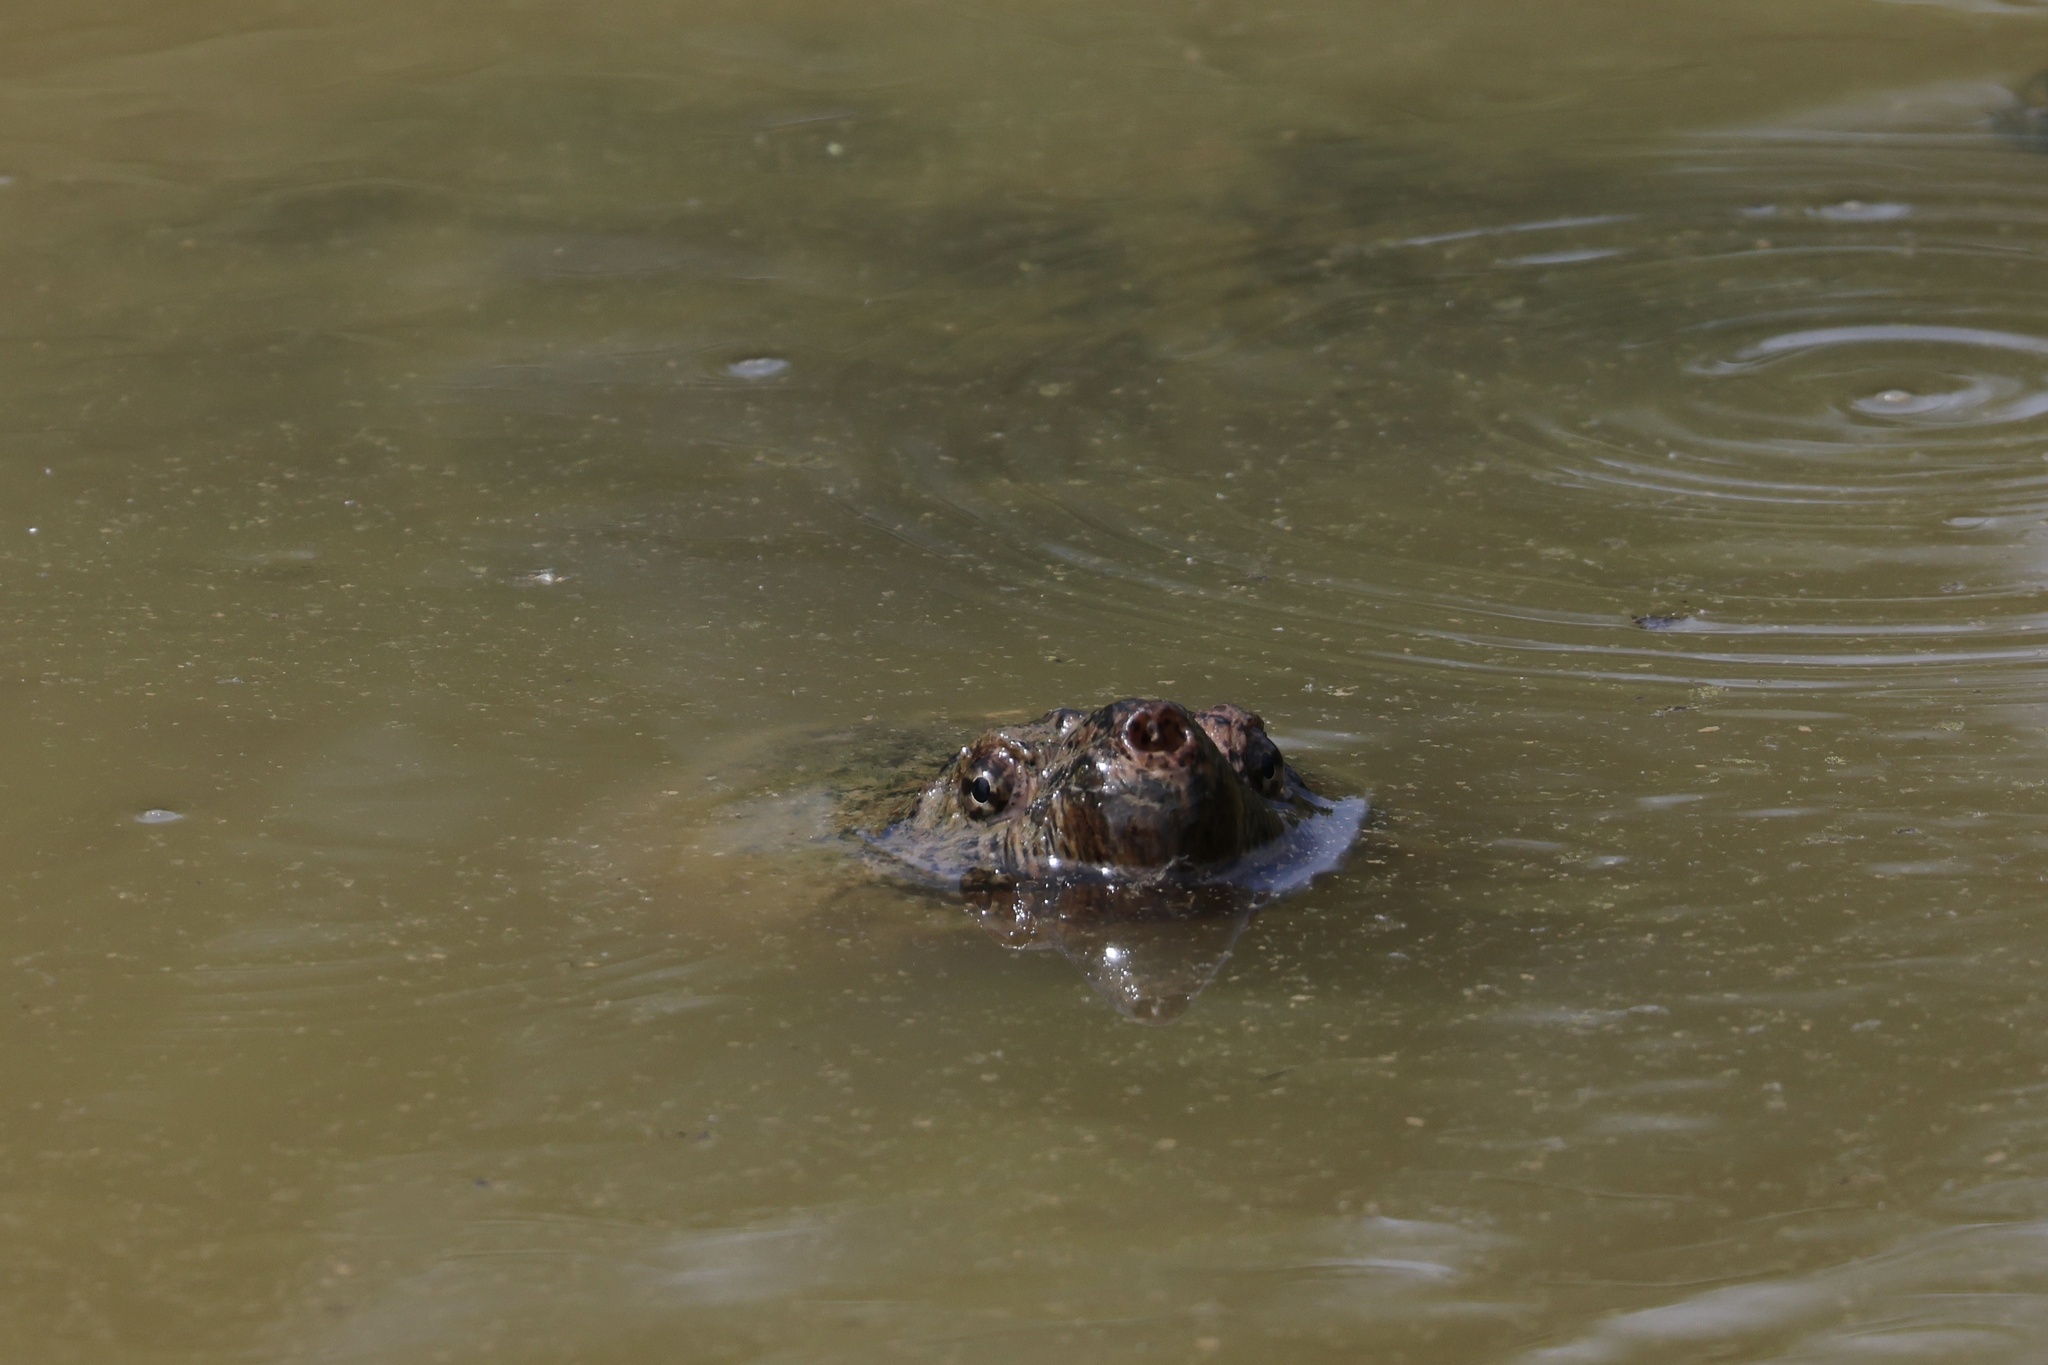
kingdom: Animalia
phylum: Chordata
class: Testudines
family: Chelydridae
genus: Chelydra
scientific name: Chelydra serpentina
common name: Common snapping turtle
